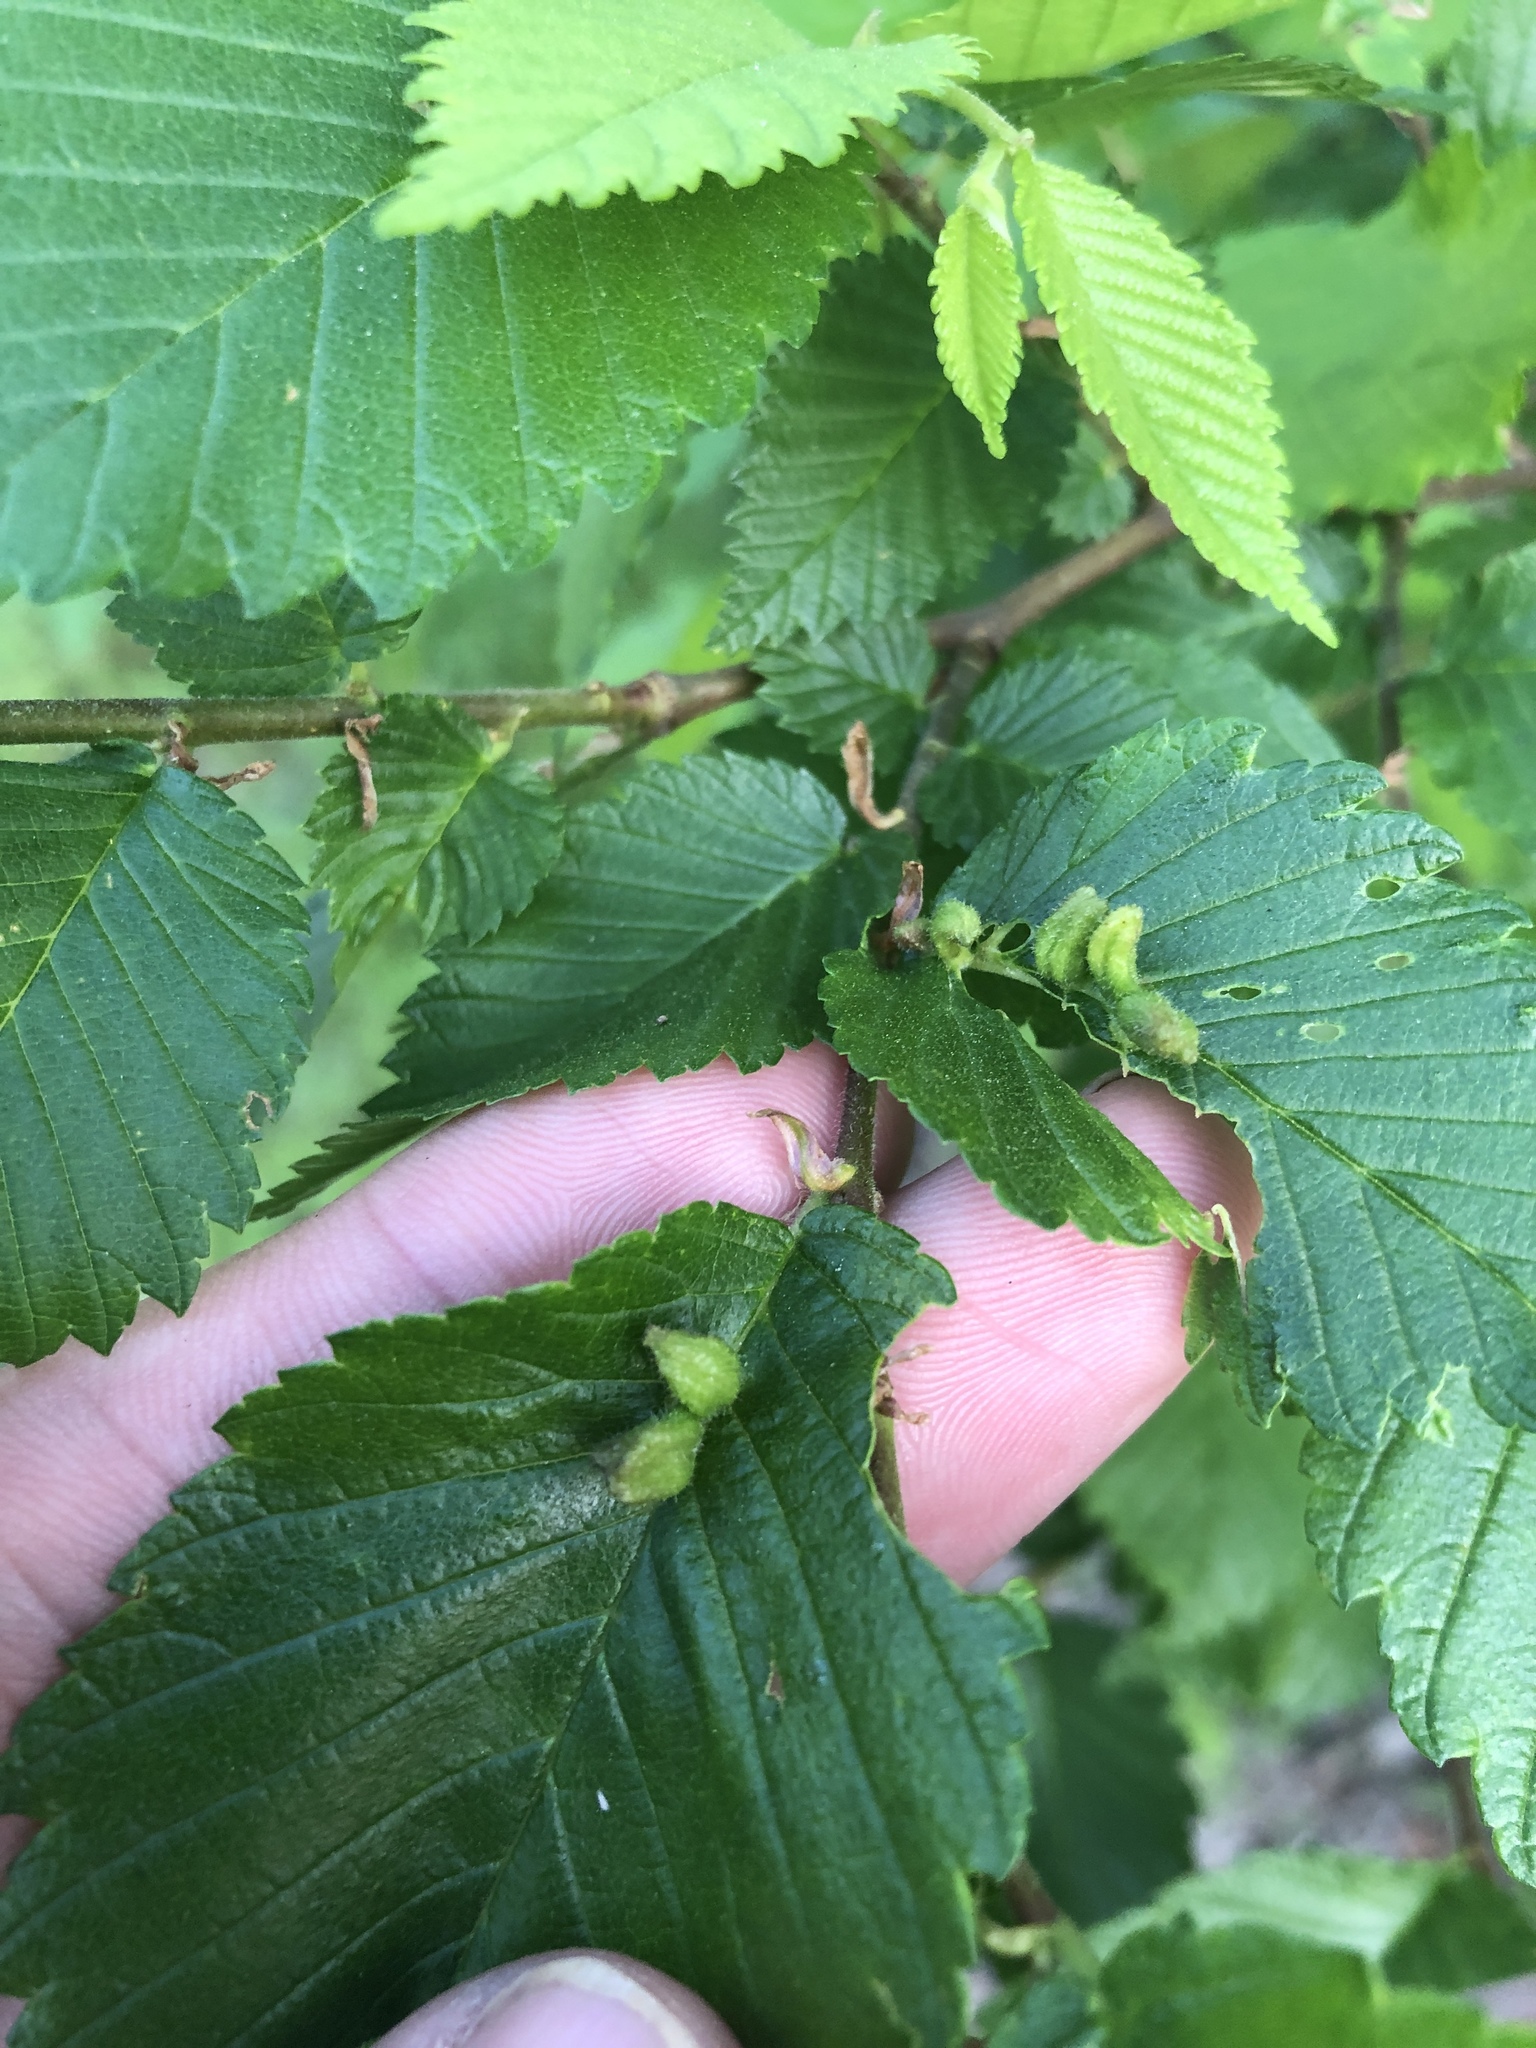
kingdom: Animalia
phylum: Arthropoda
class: Arachnida
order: Trombidiformes
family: Eriophyidae
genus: Aceria
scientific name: Aceria
